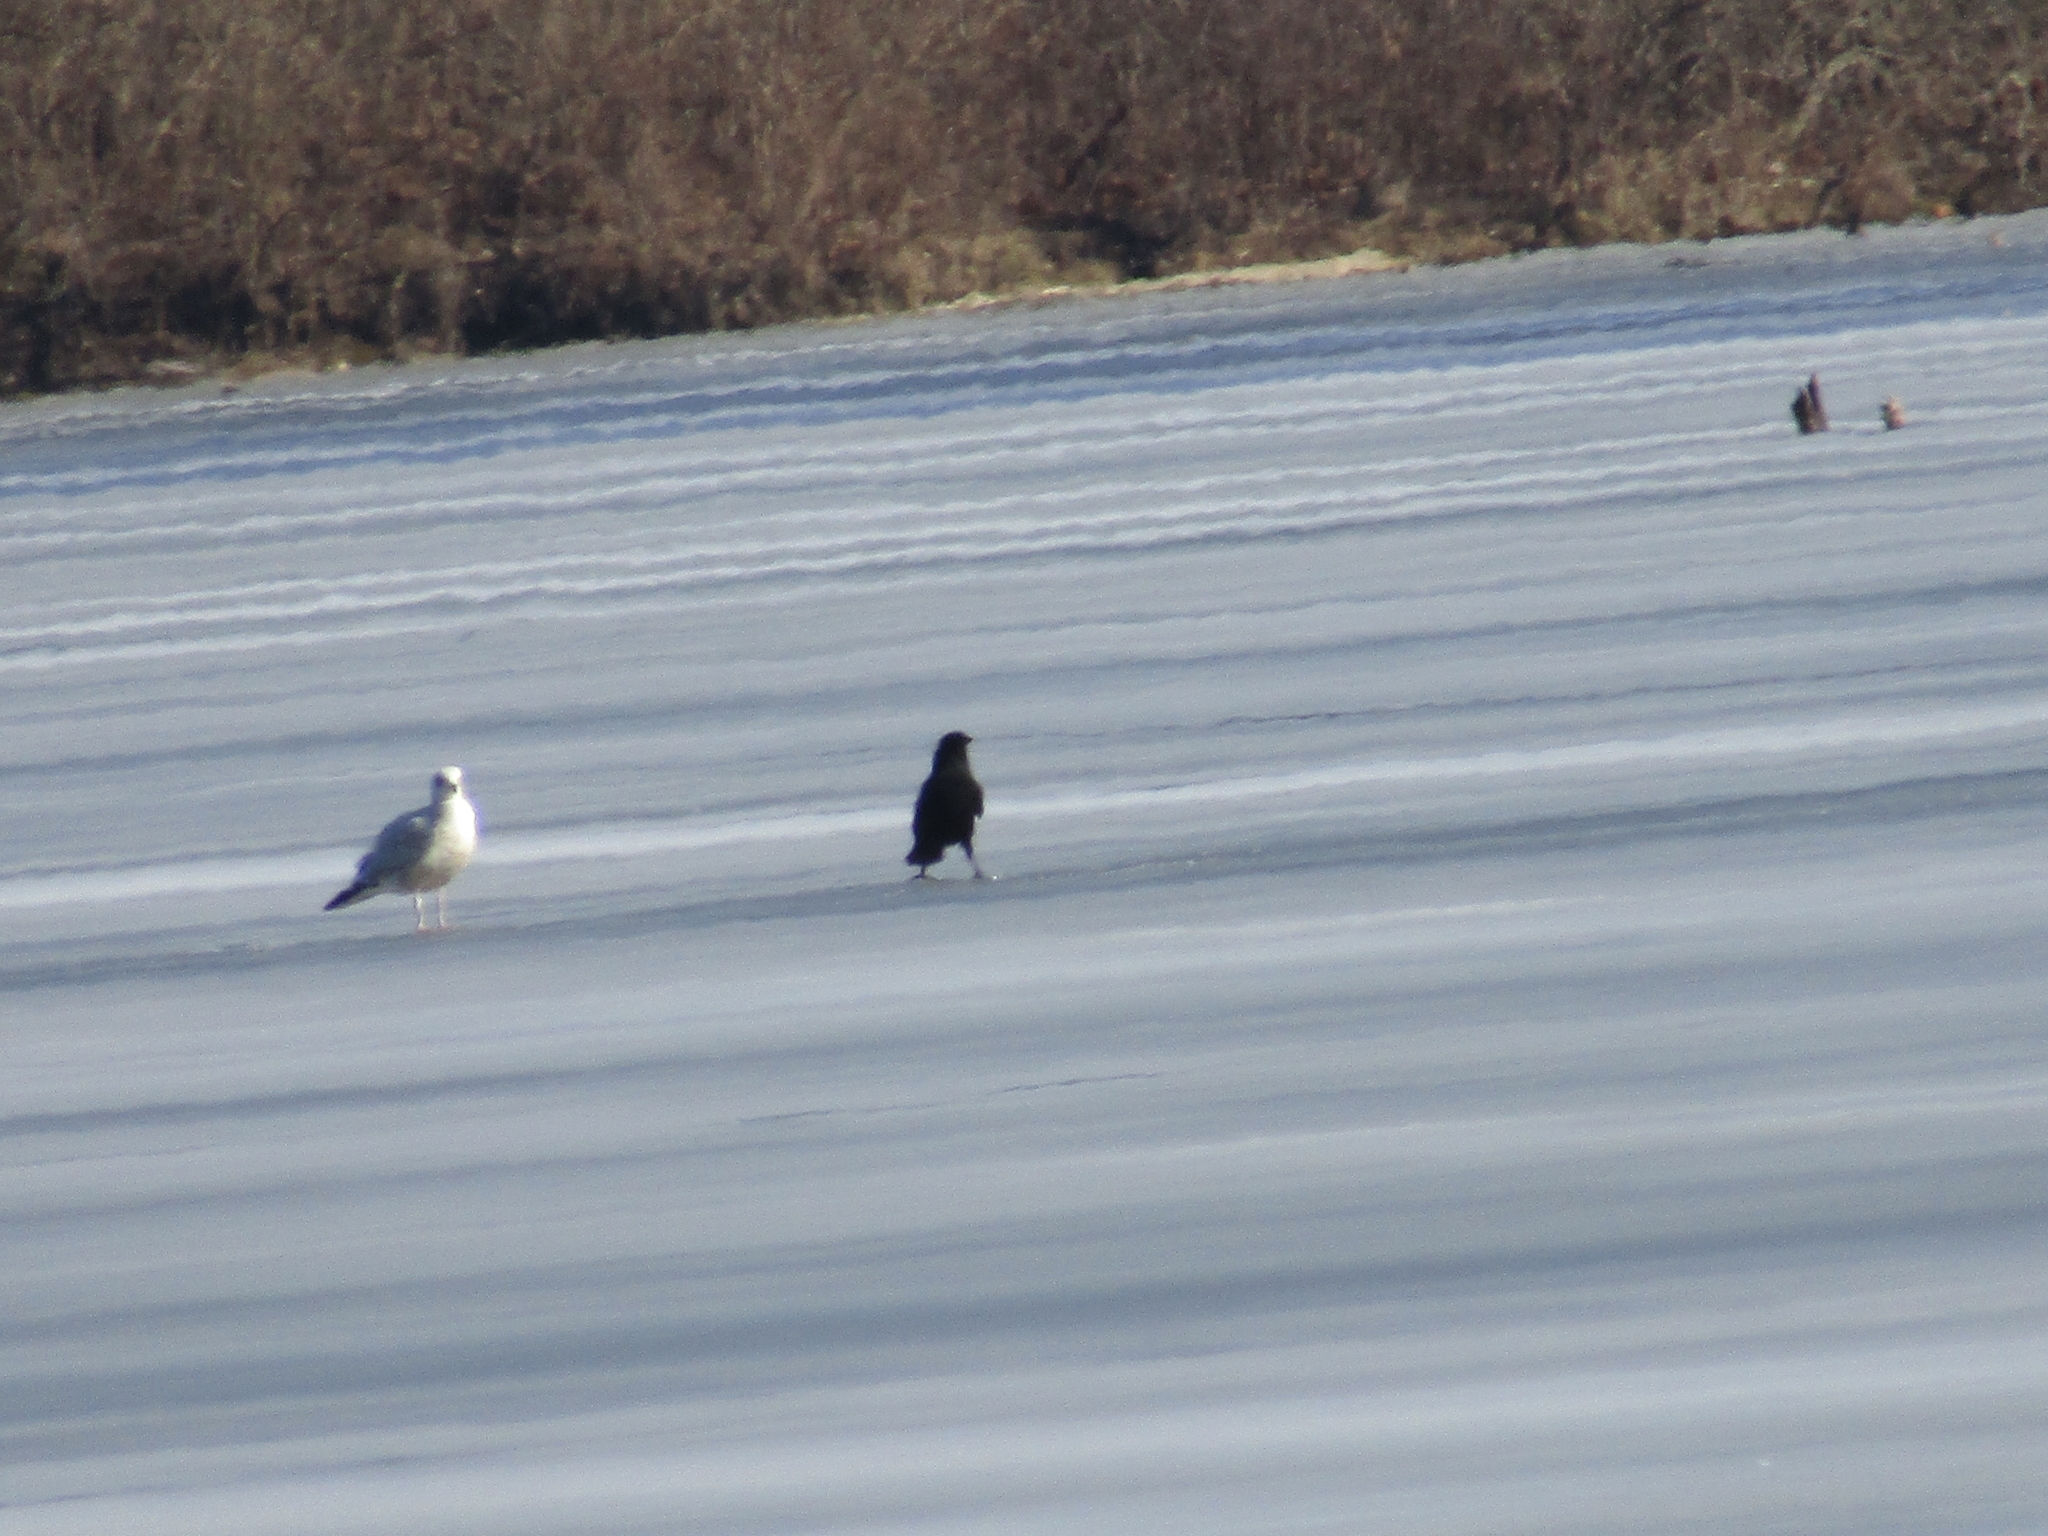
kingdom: Animalia
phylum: Chordata
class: Aves
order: Passeriformes
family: Corvidae
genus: Corvus
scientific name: Corvus brachyrhynchos
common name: American crow
